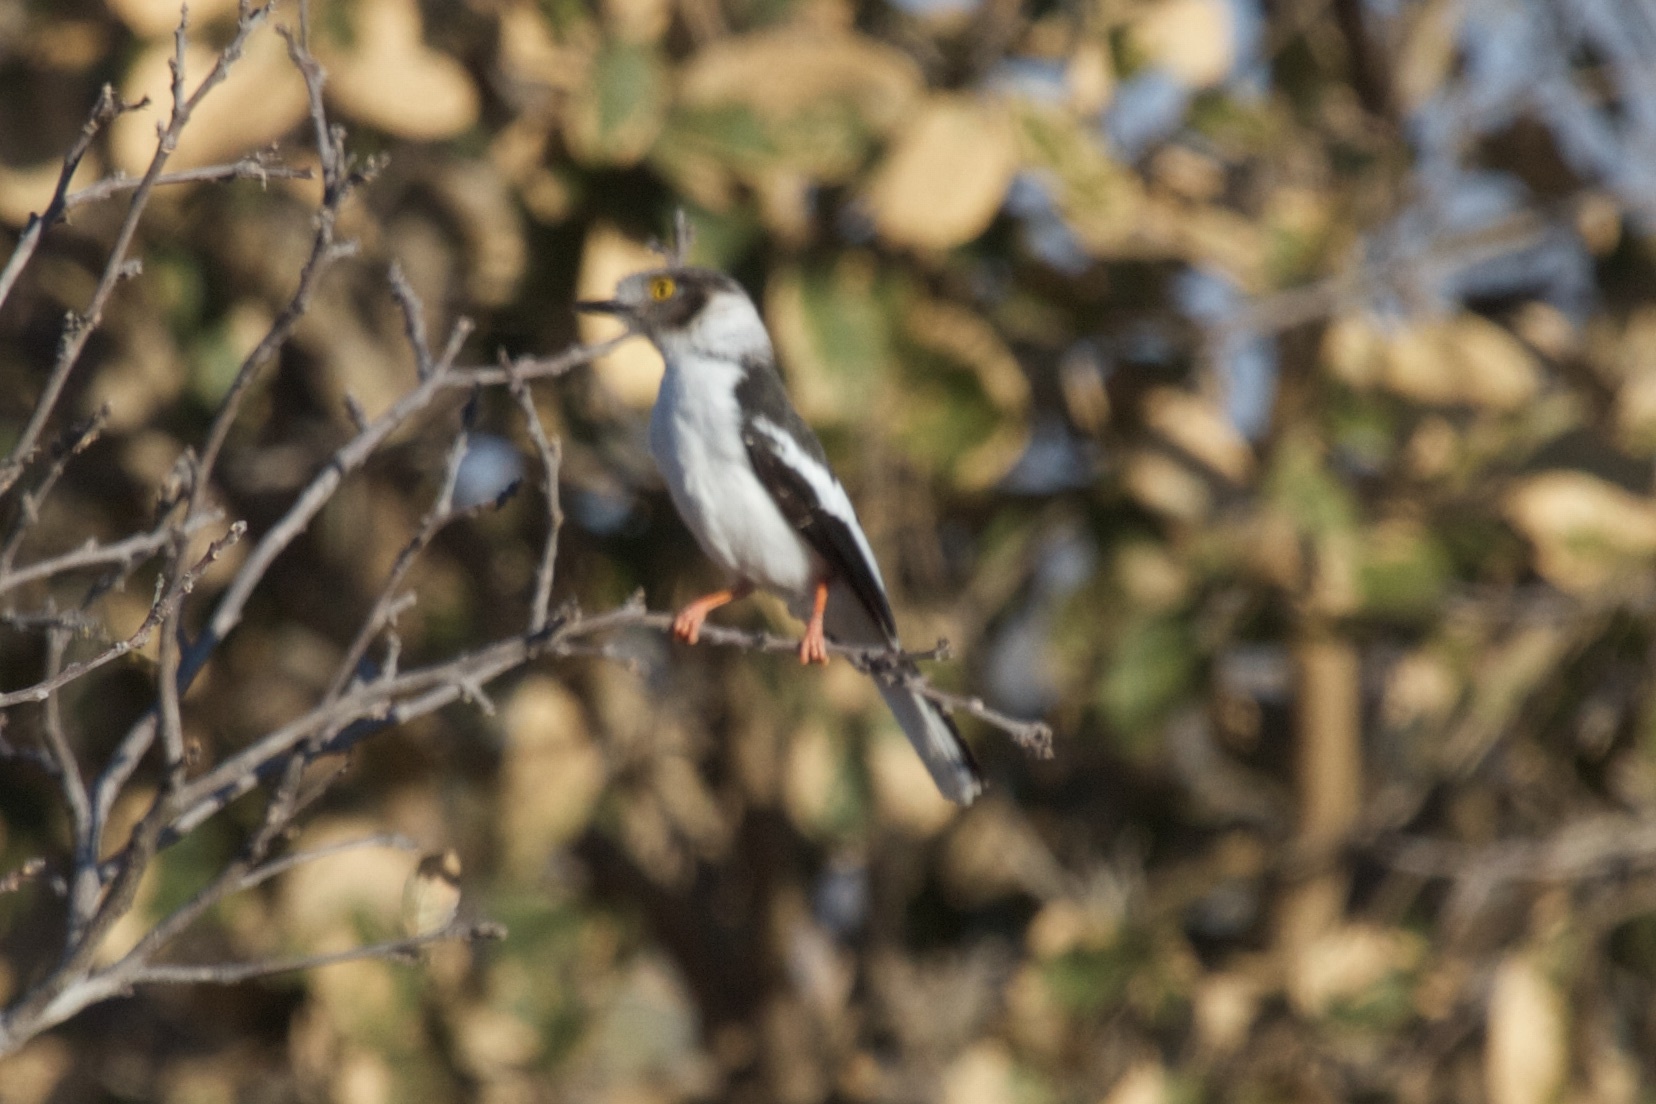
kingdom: Animalia
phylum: Chordata
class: Aves
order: Passeriformes
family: Prionopidae
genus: Prionops
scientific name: Prionops plumatus
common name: White-crested helmetshrike
